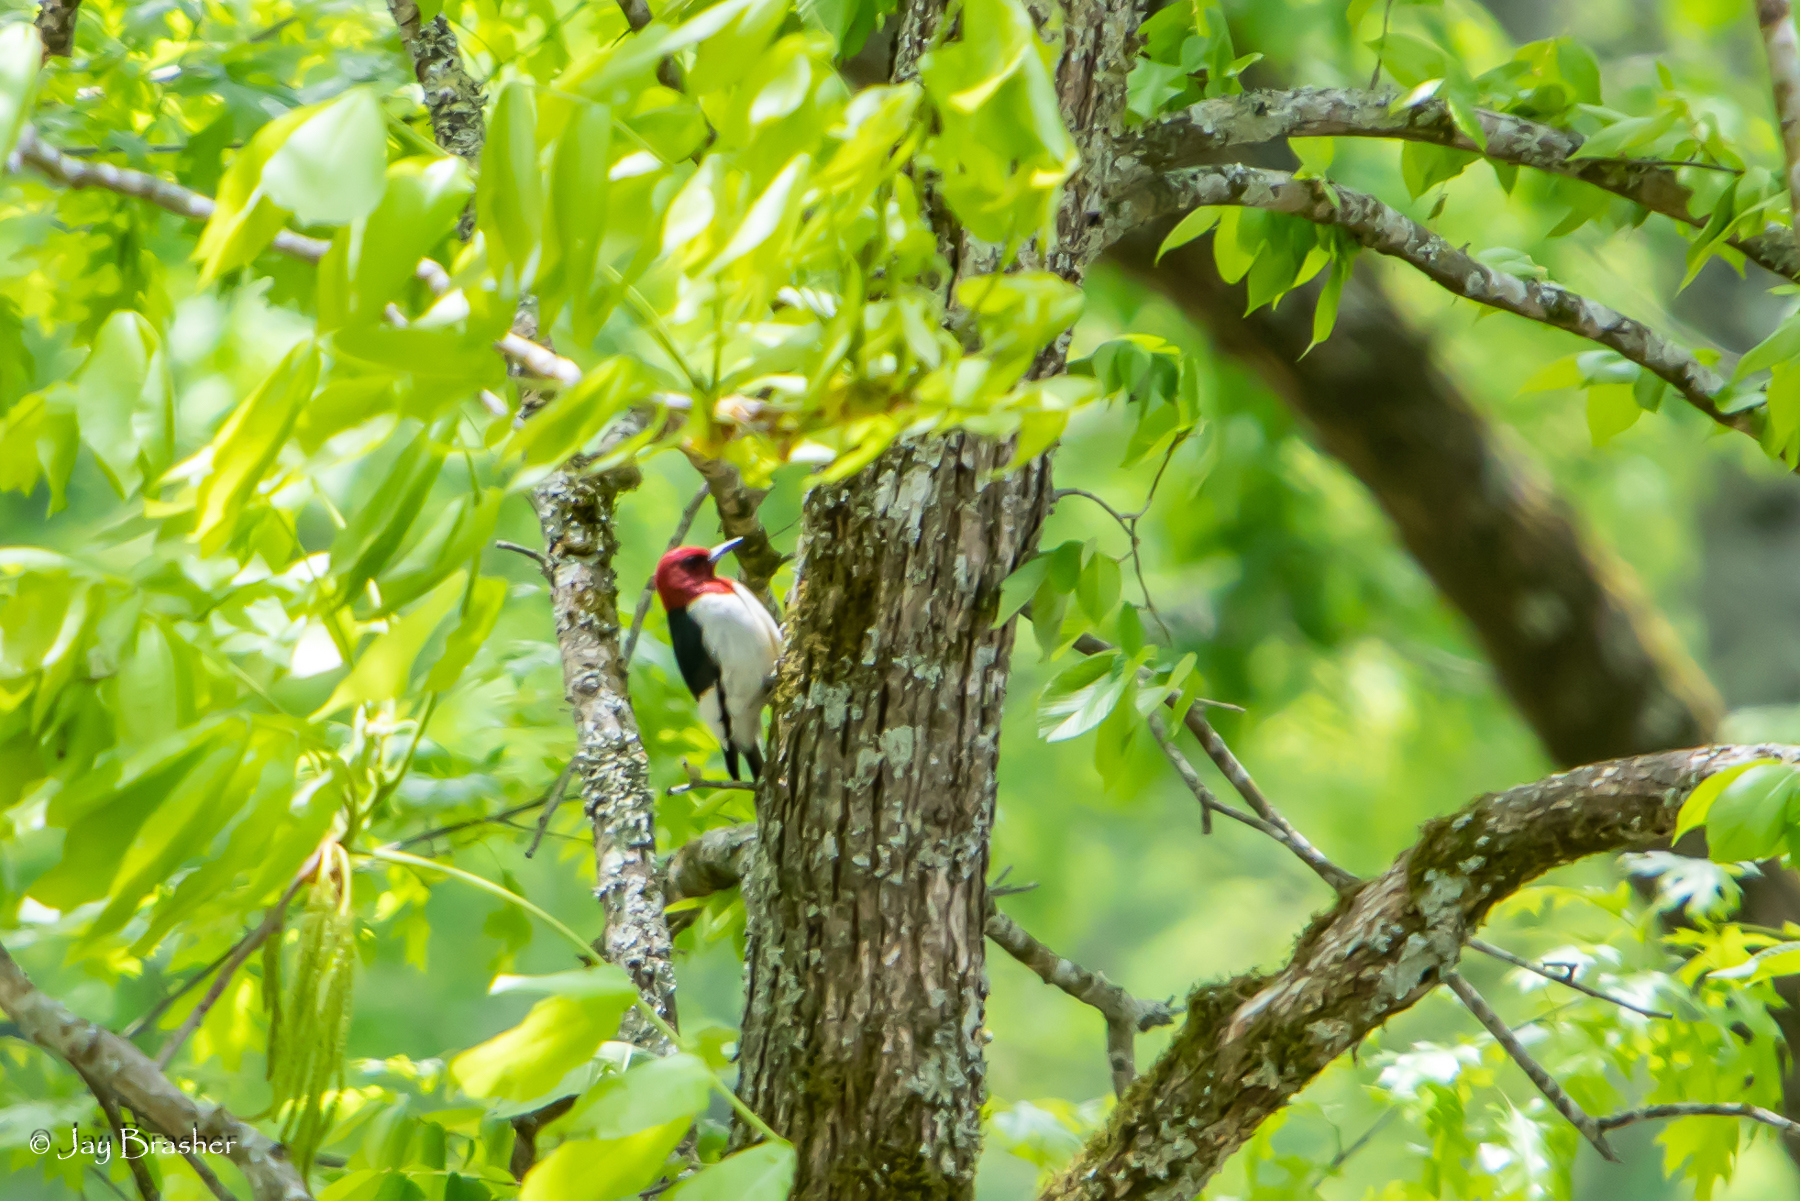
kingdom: Animalia
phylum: Chordata
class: Aves
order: Piciformes
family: Picidae
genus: Melanerpes
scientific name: Melanerpes erythrocephalus
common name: Red-headed woodpecker
